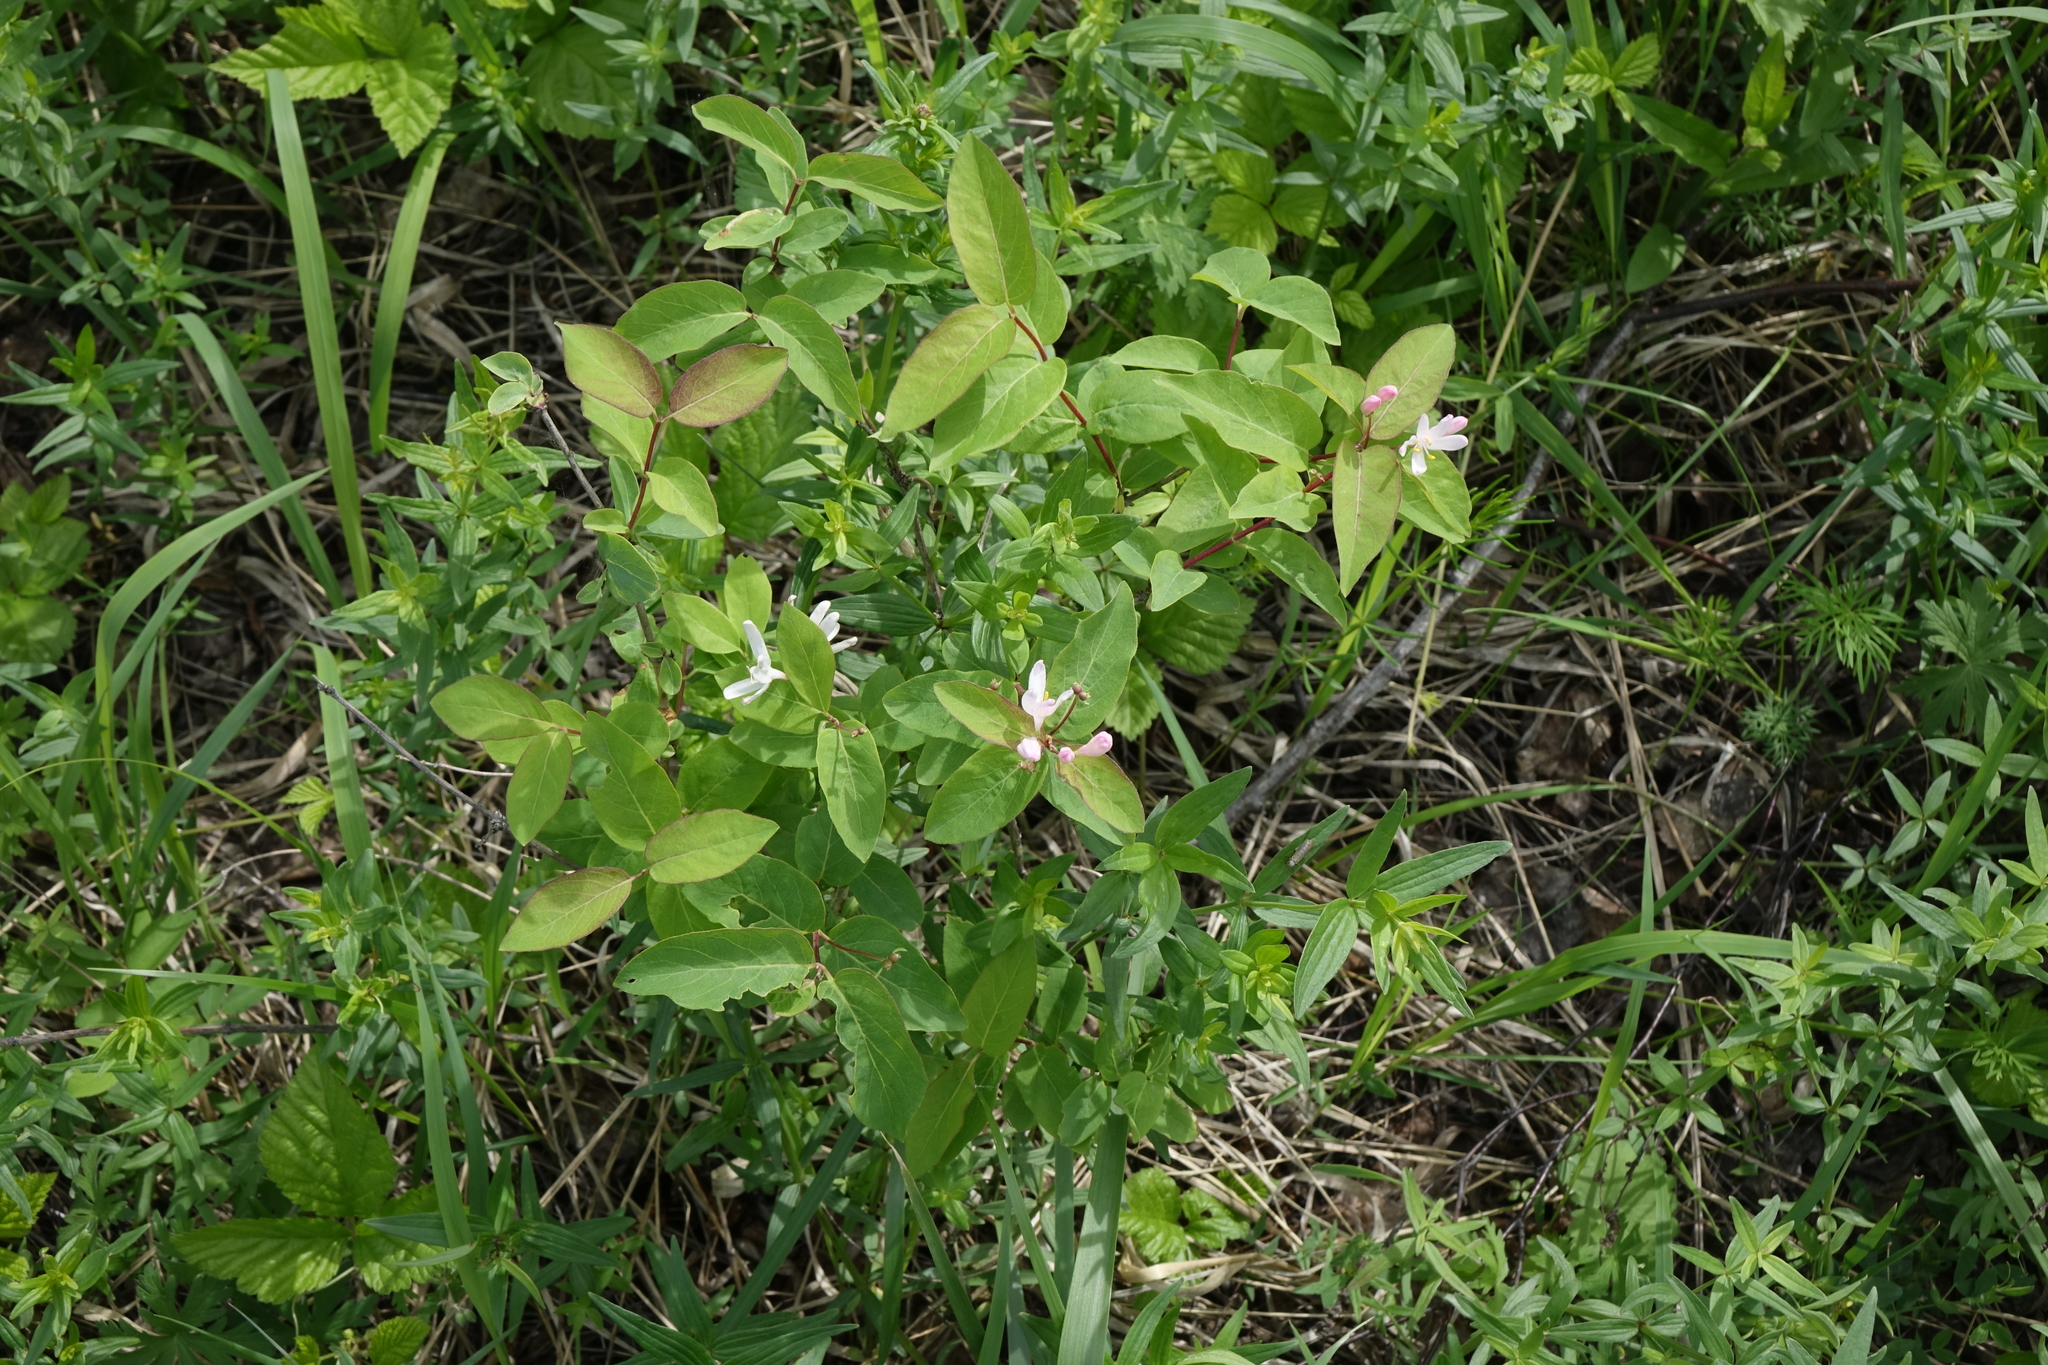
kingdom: Plantae
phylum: Tracheophyta
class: Magnoliopsida
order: Dipsacales
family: Caprifoliaceae
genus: Lonicera
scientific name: Lonicera tatarica
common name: Tatarian honeysuckle
